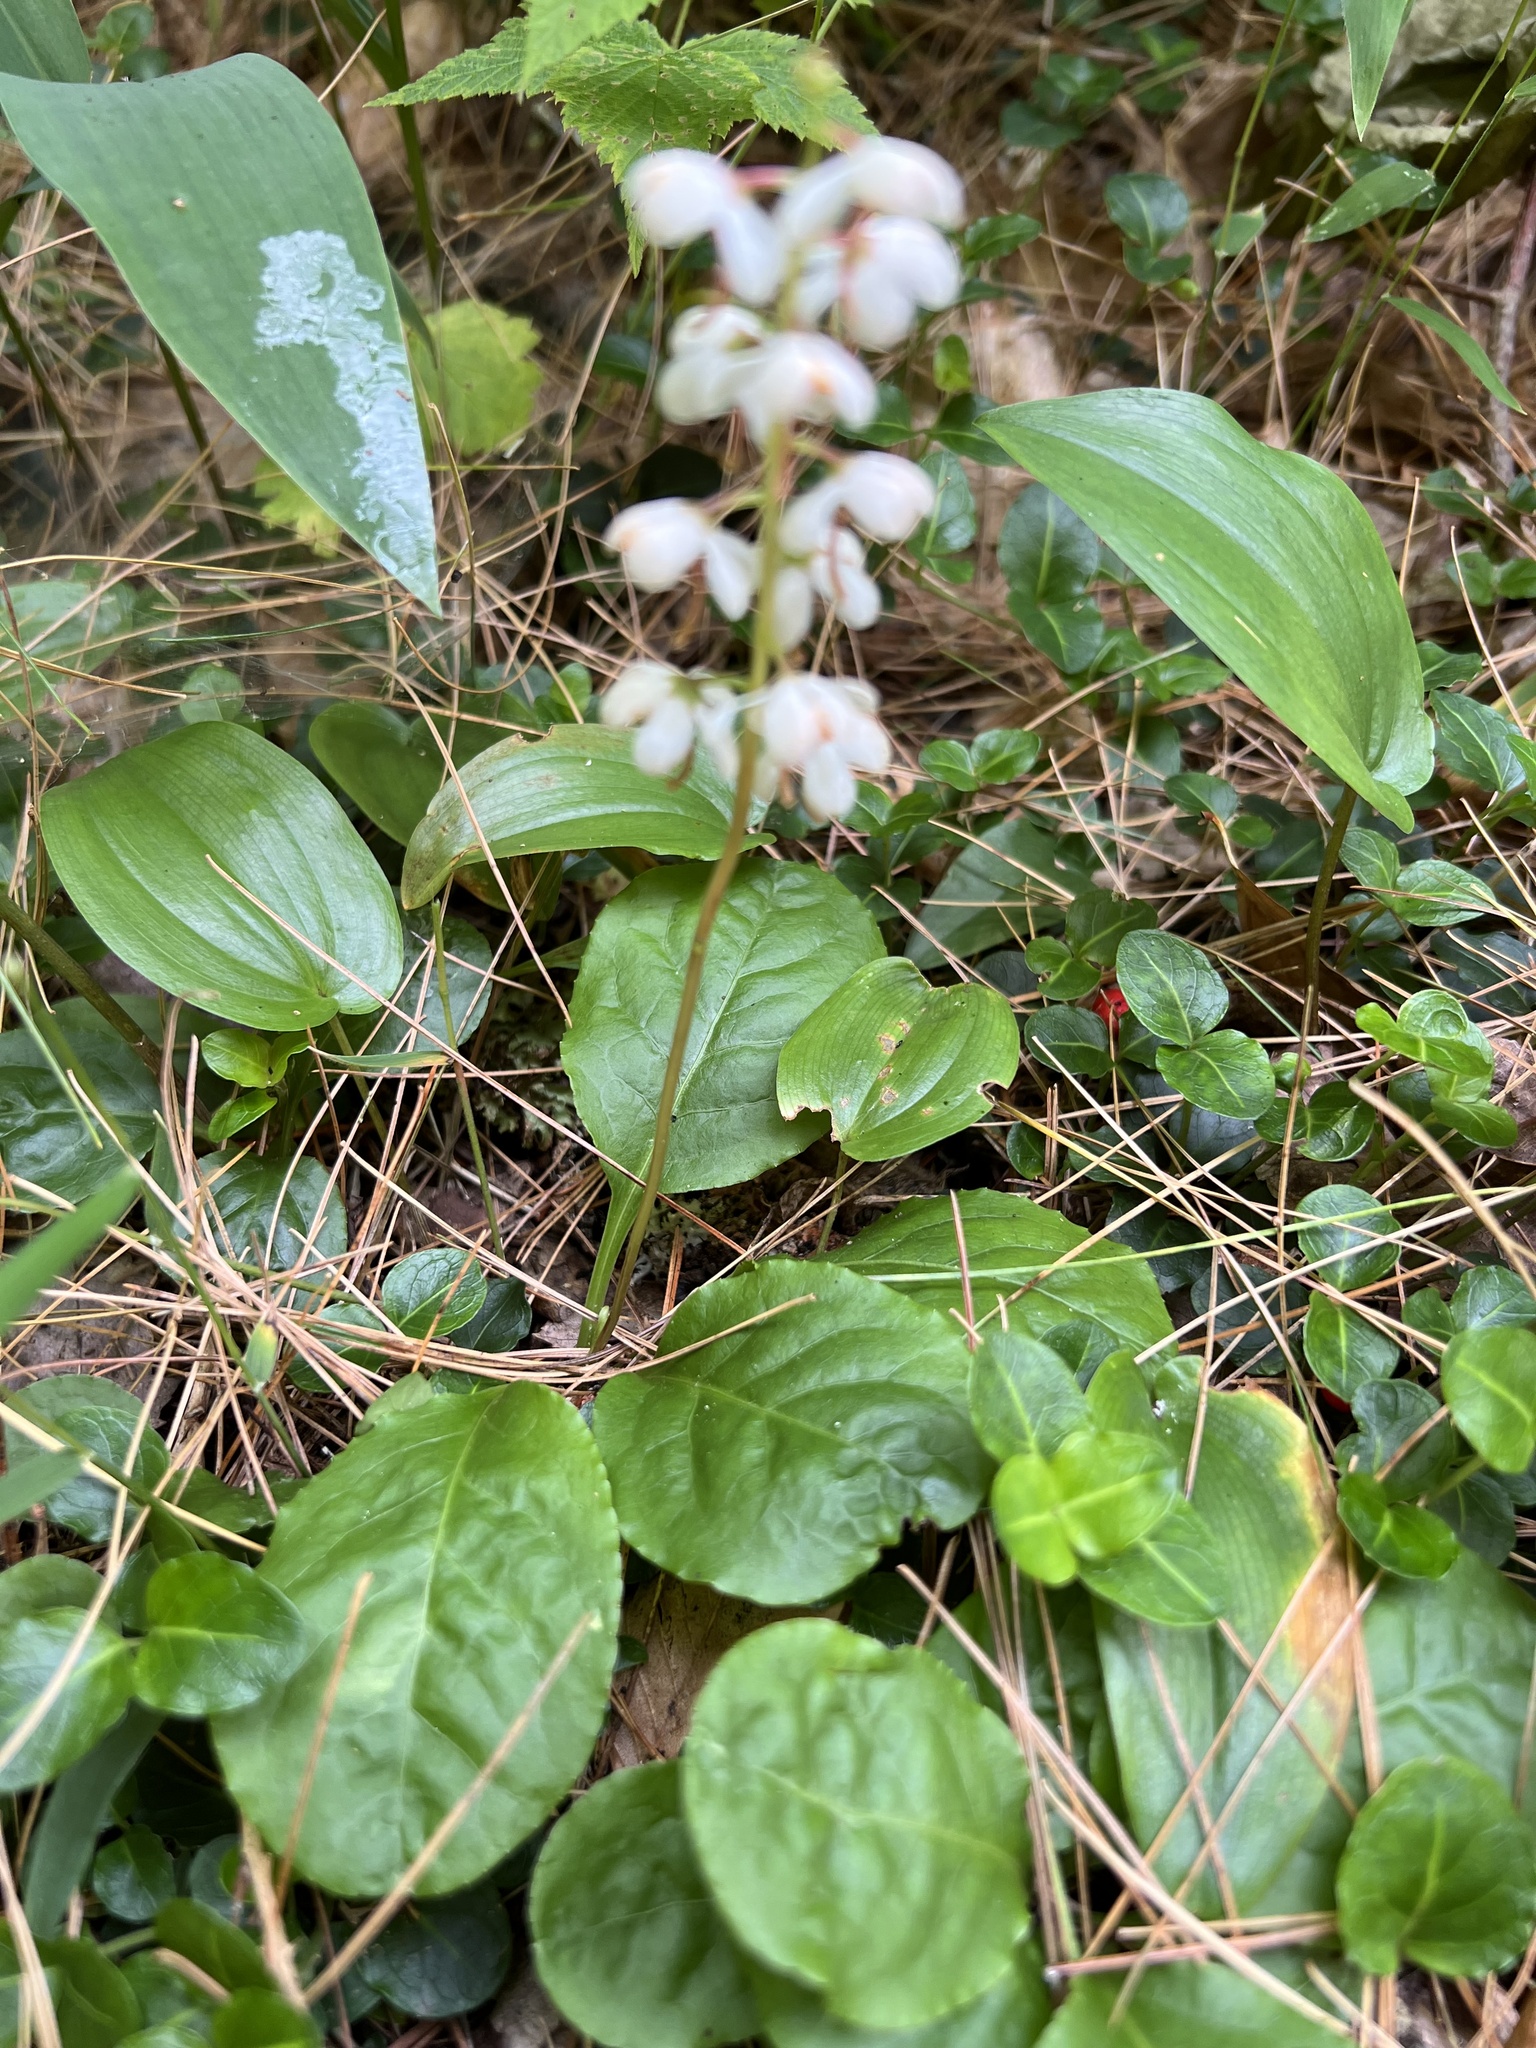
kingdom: Plantae
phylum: Tracheophyta
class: Magnoliopsida
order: Ericales
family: Ericaceae
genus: Pyrola
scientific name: Pyrola elliptica
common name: Shinleaf
